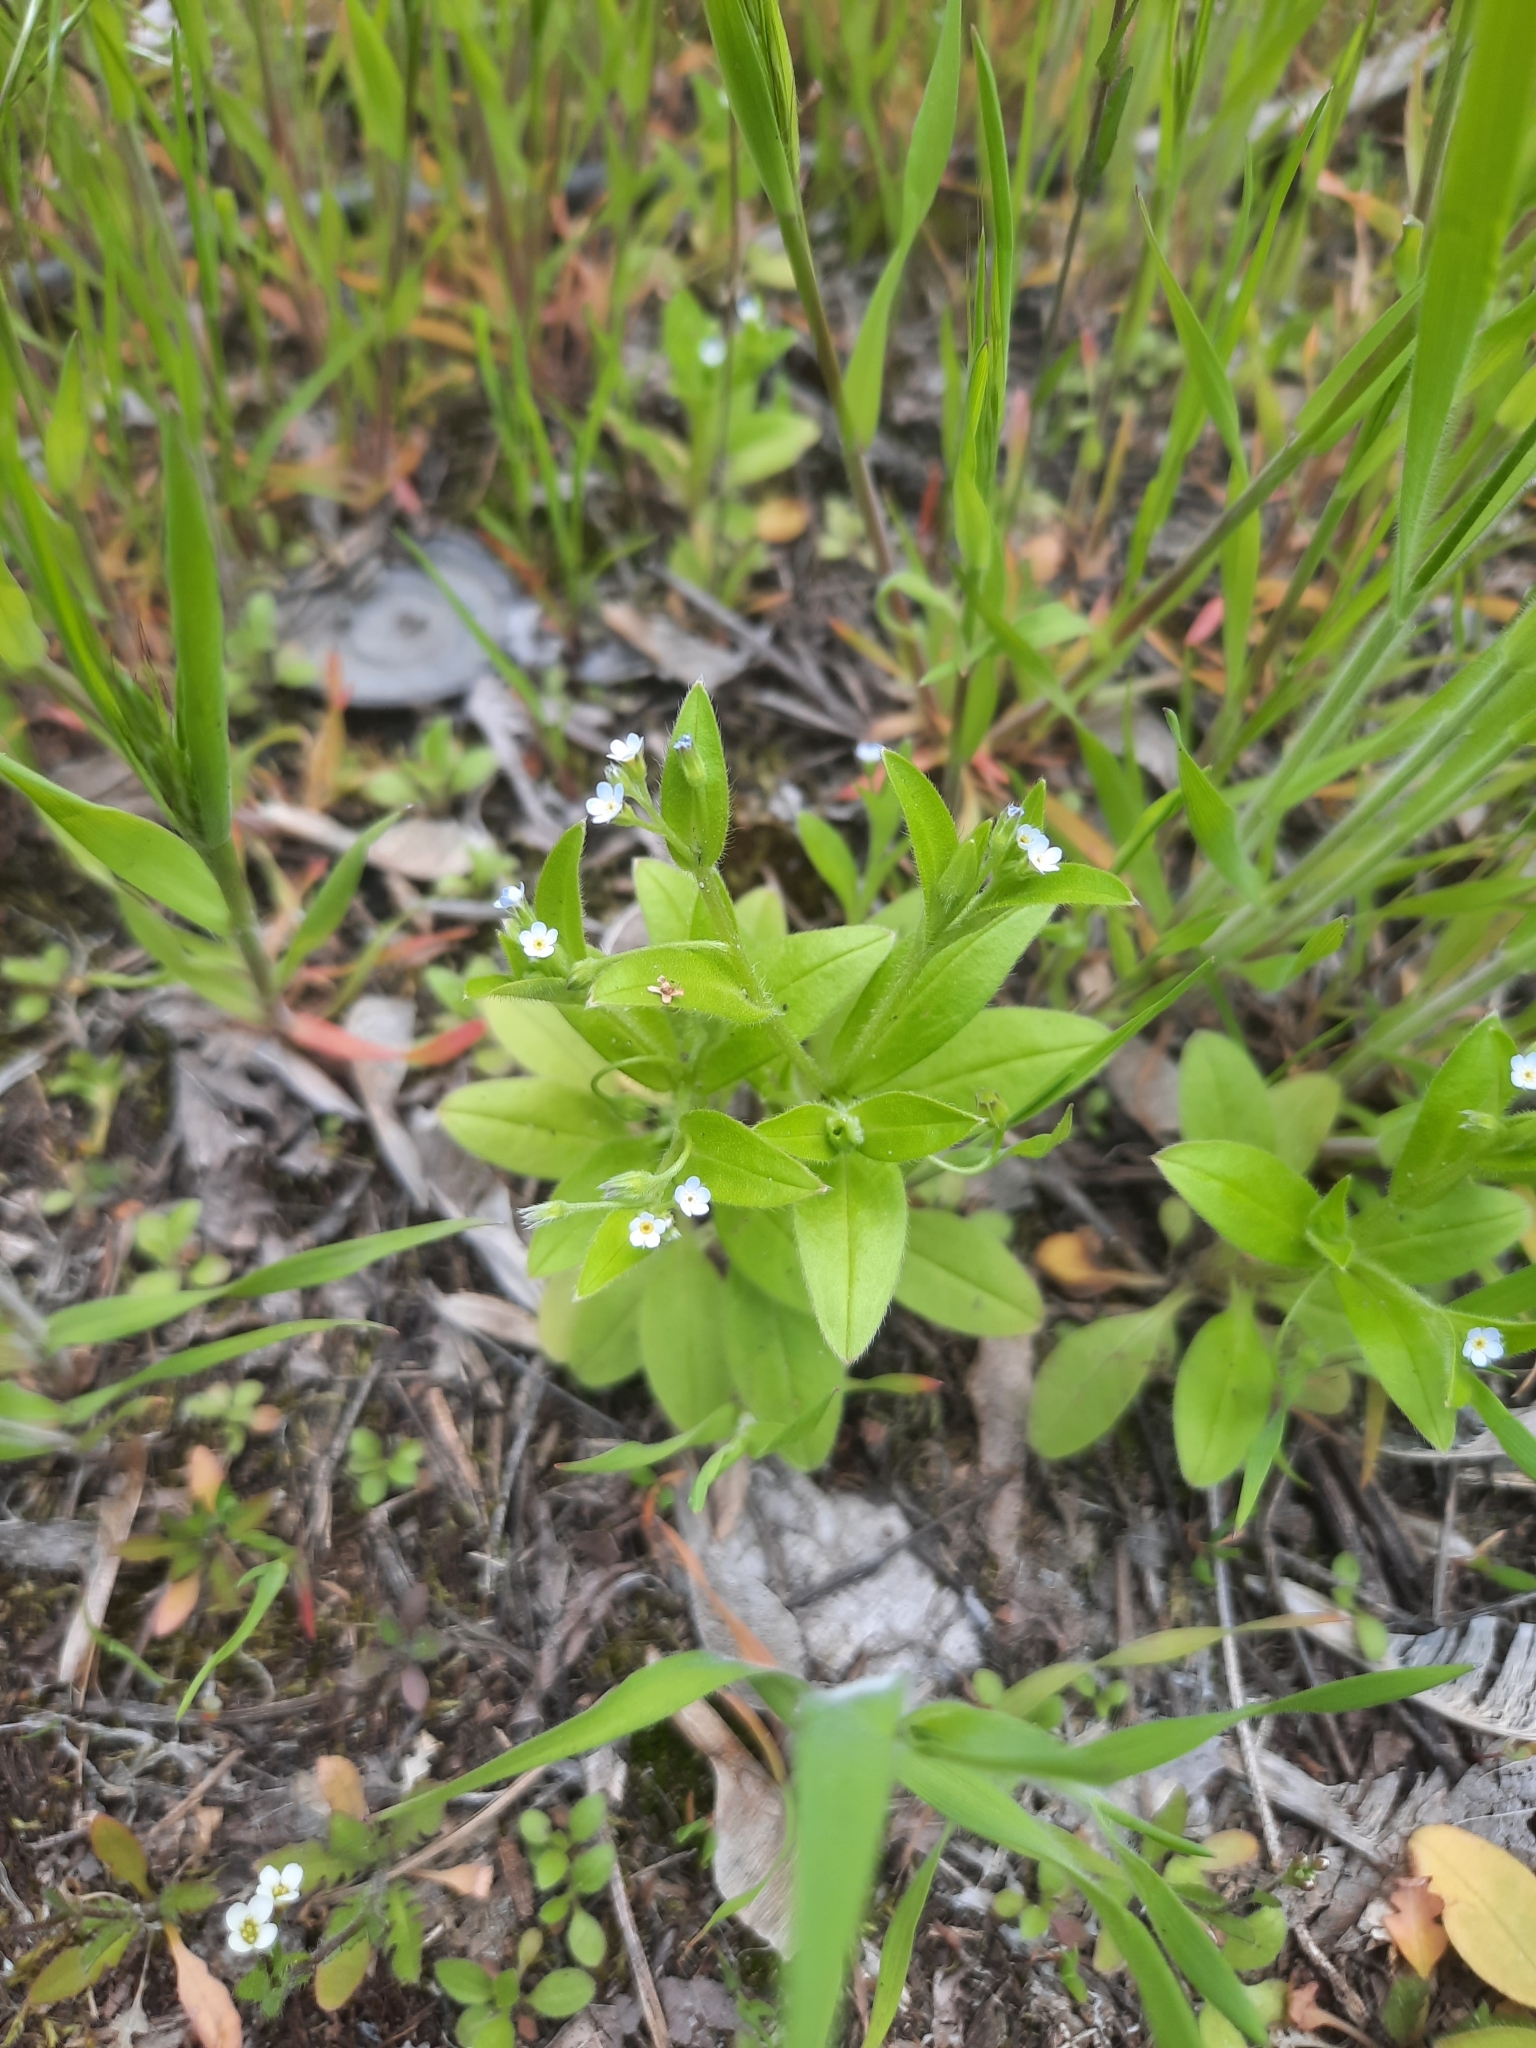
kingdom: Plantae
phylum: Tracheophyta
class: Magnoliopsida
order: Boraginales
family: Boraginaceae
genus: Myosotis
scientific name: Myosotis sparsiflora
